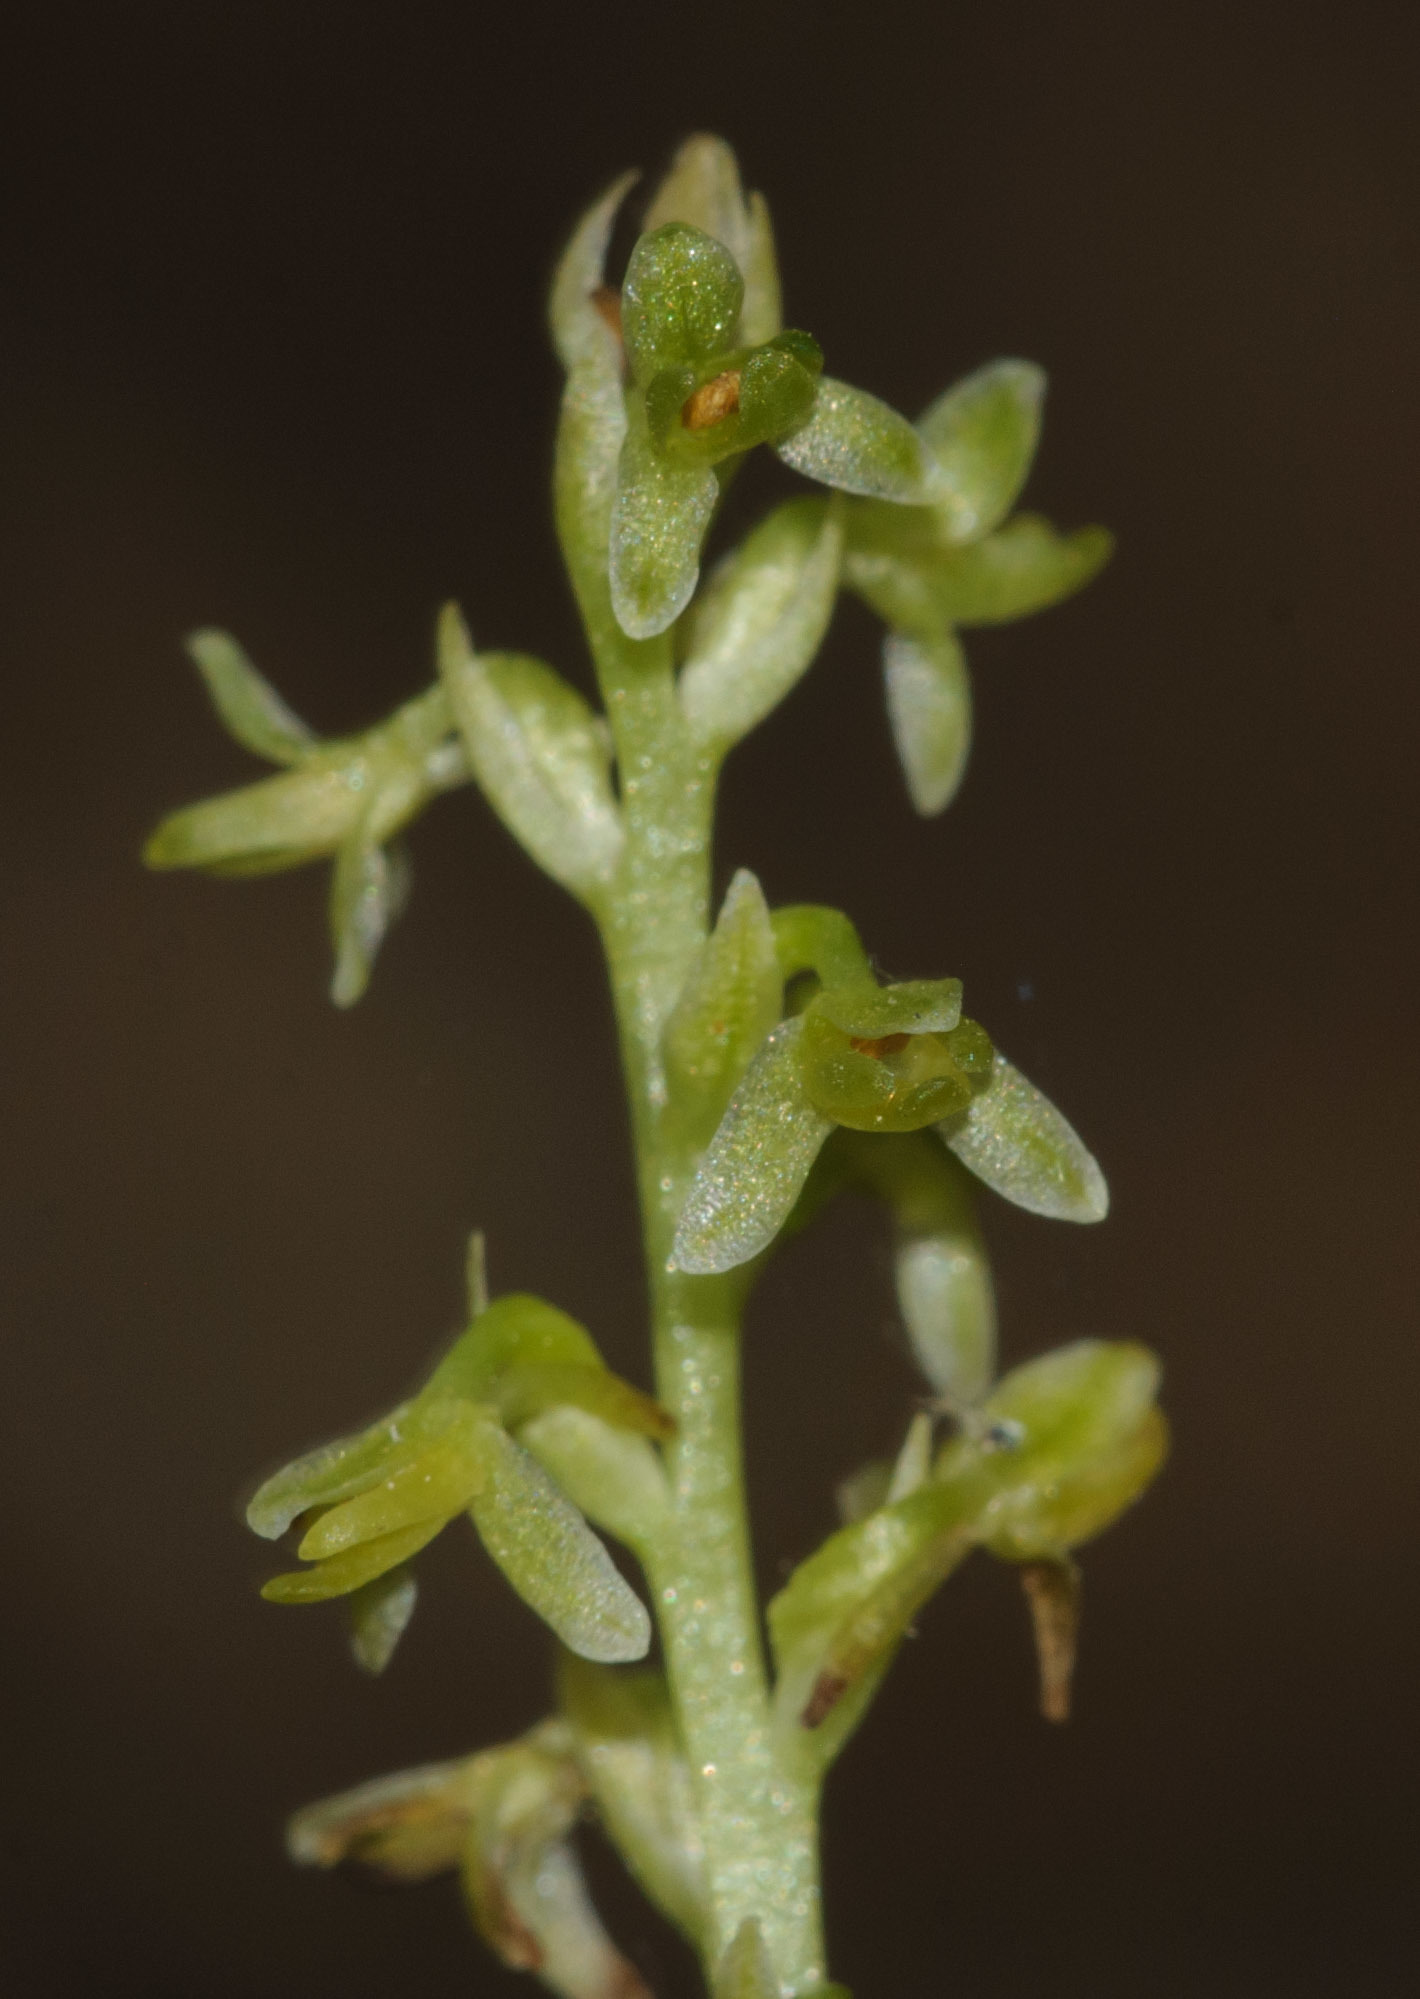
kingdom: Plantae
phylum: Tracheophyta
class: Liliopsida
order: Asparagales
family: Orchidaceae
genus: Platanthera
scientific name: Platanthera unalascensis
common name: Alaska bog orchid
